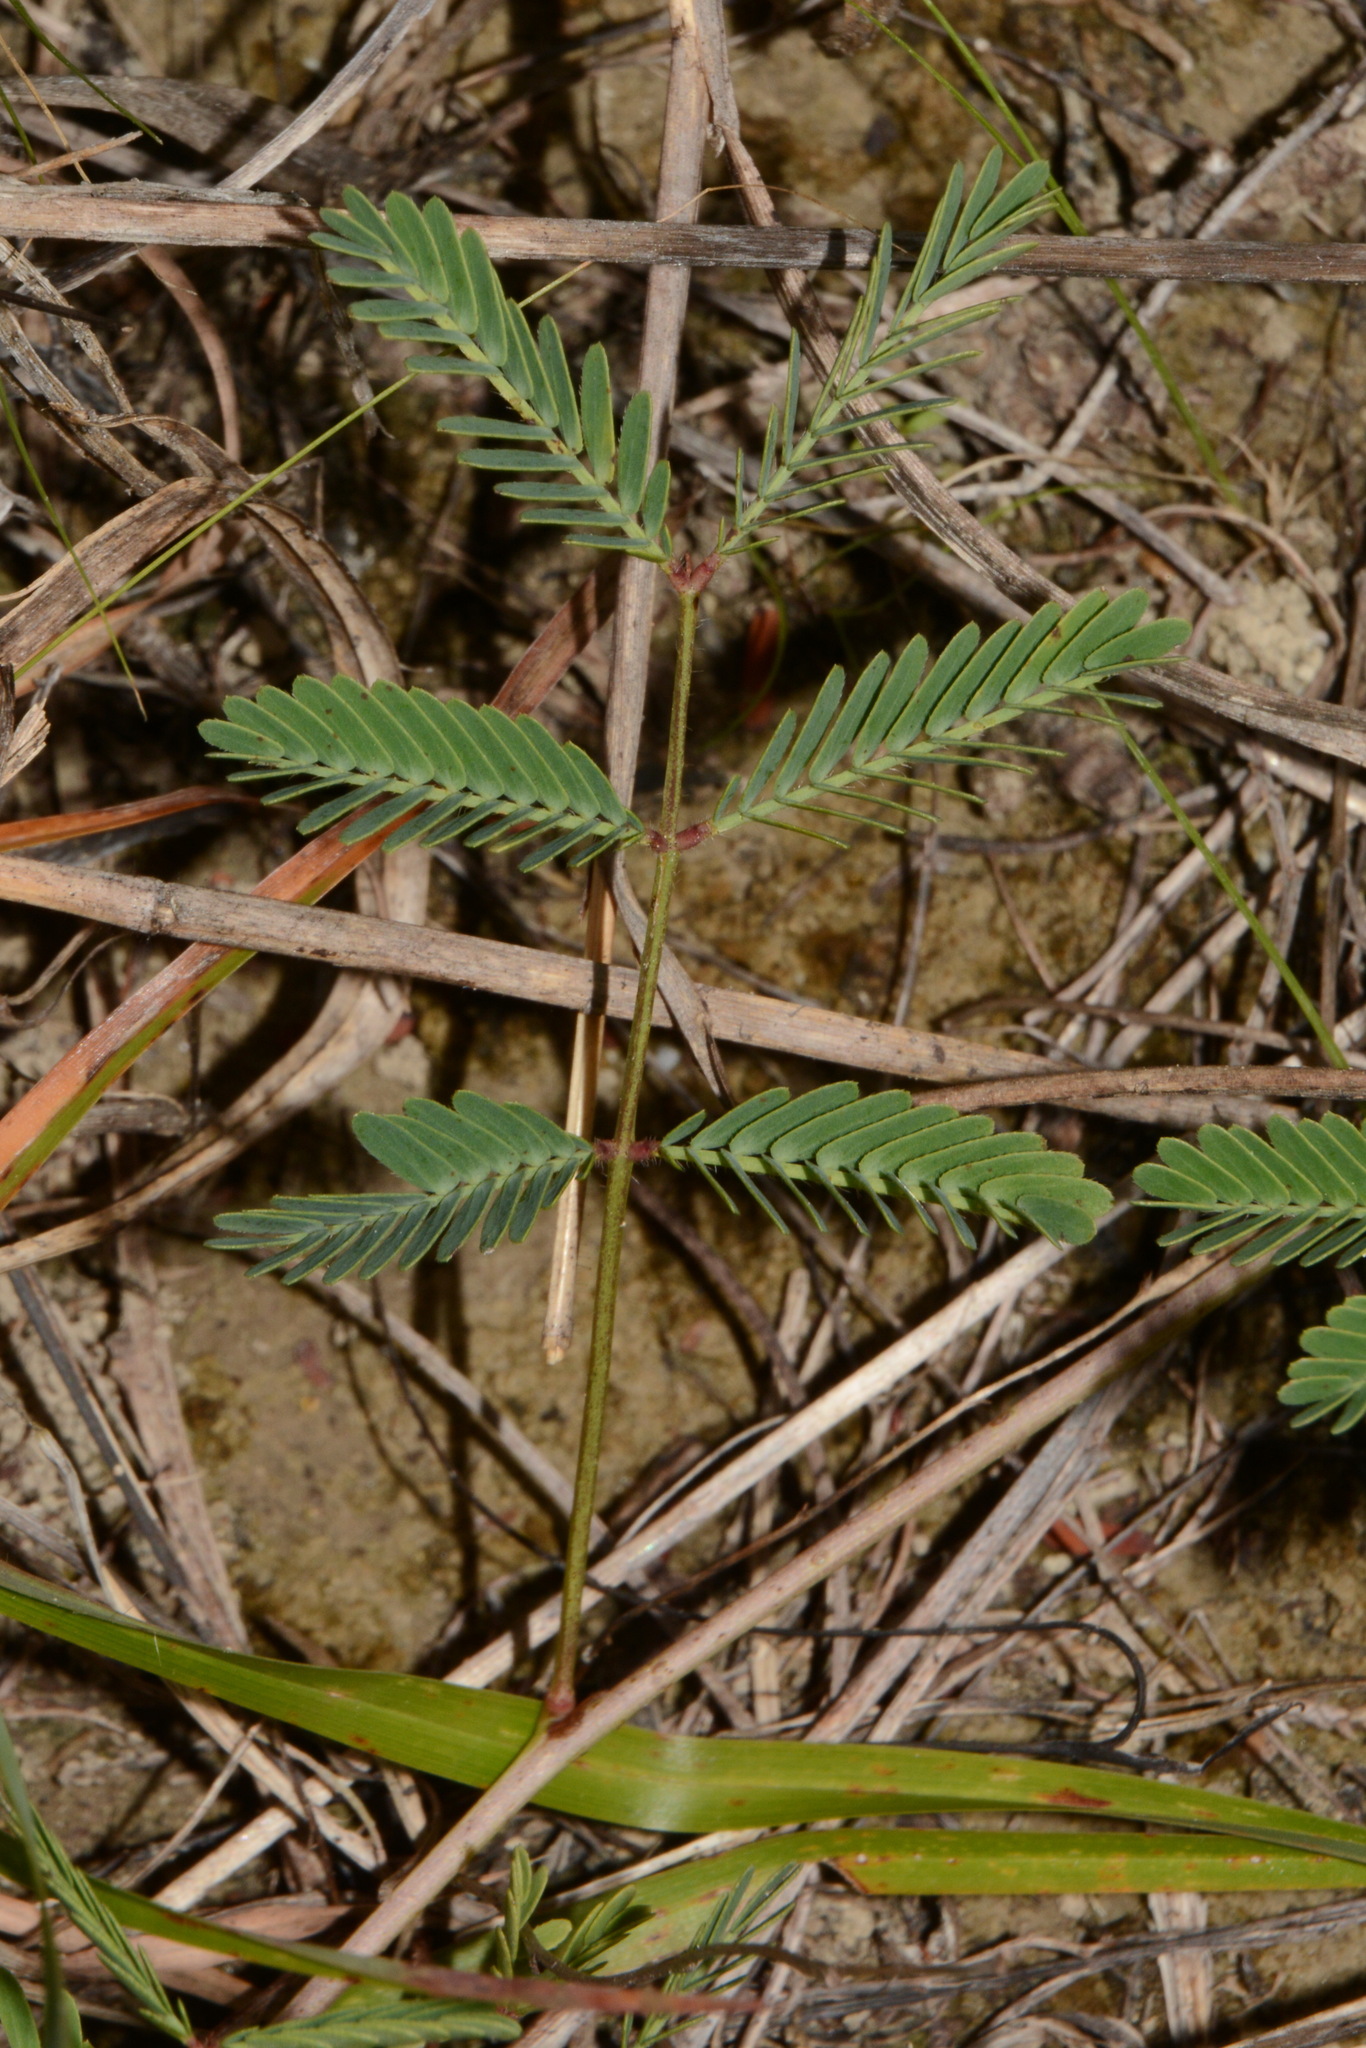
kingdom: Plantae
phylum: Tracheophyta
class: Magnoliopsida
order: Fabales
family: Fabaceae
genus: Neptunia
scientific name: Neptunia lutea
